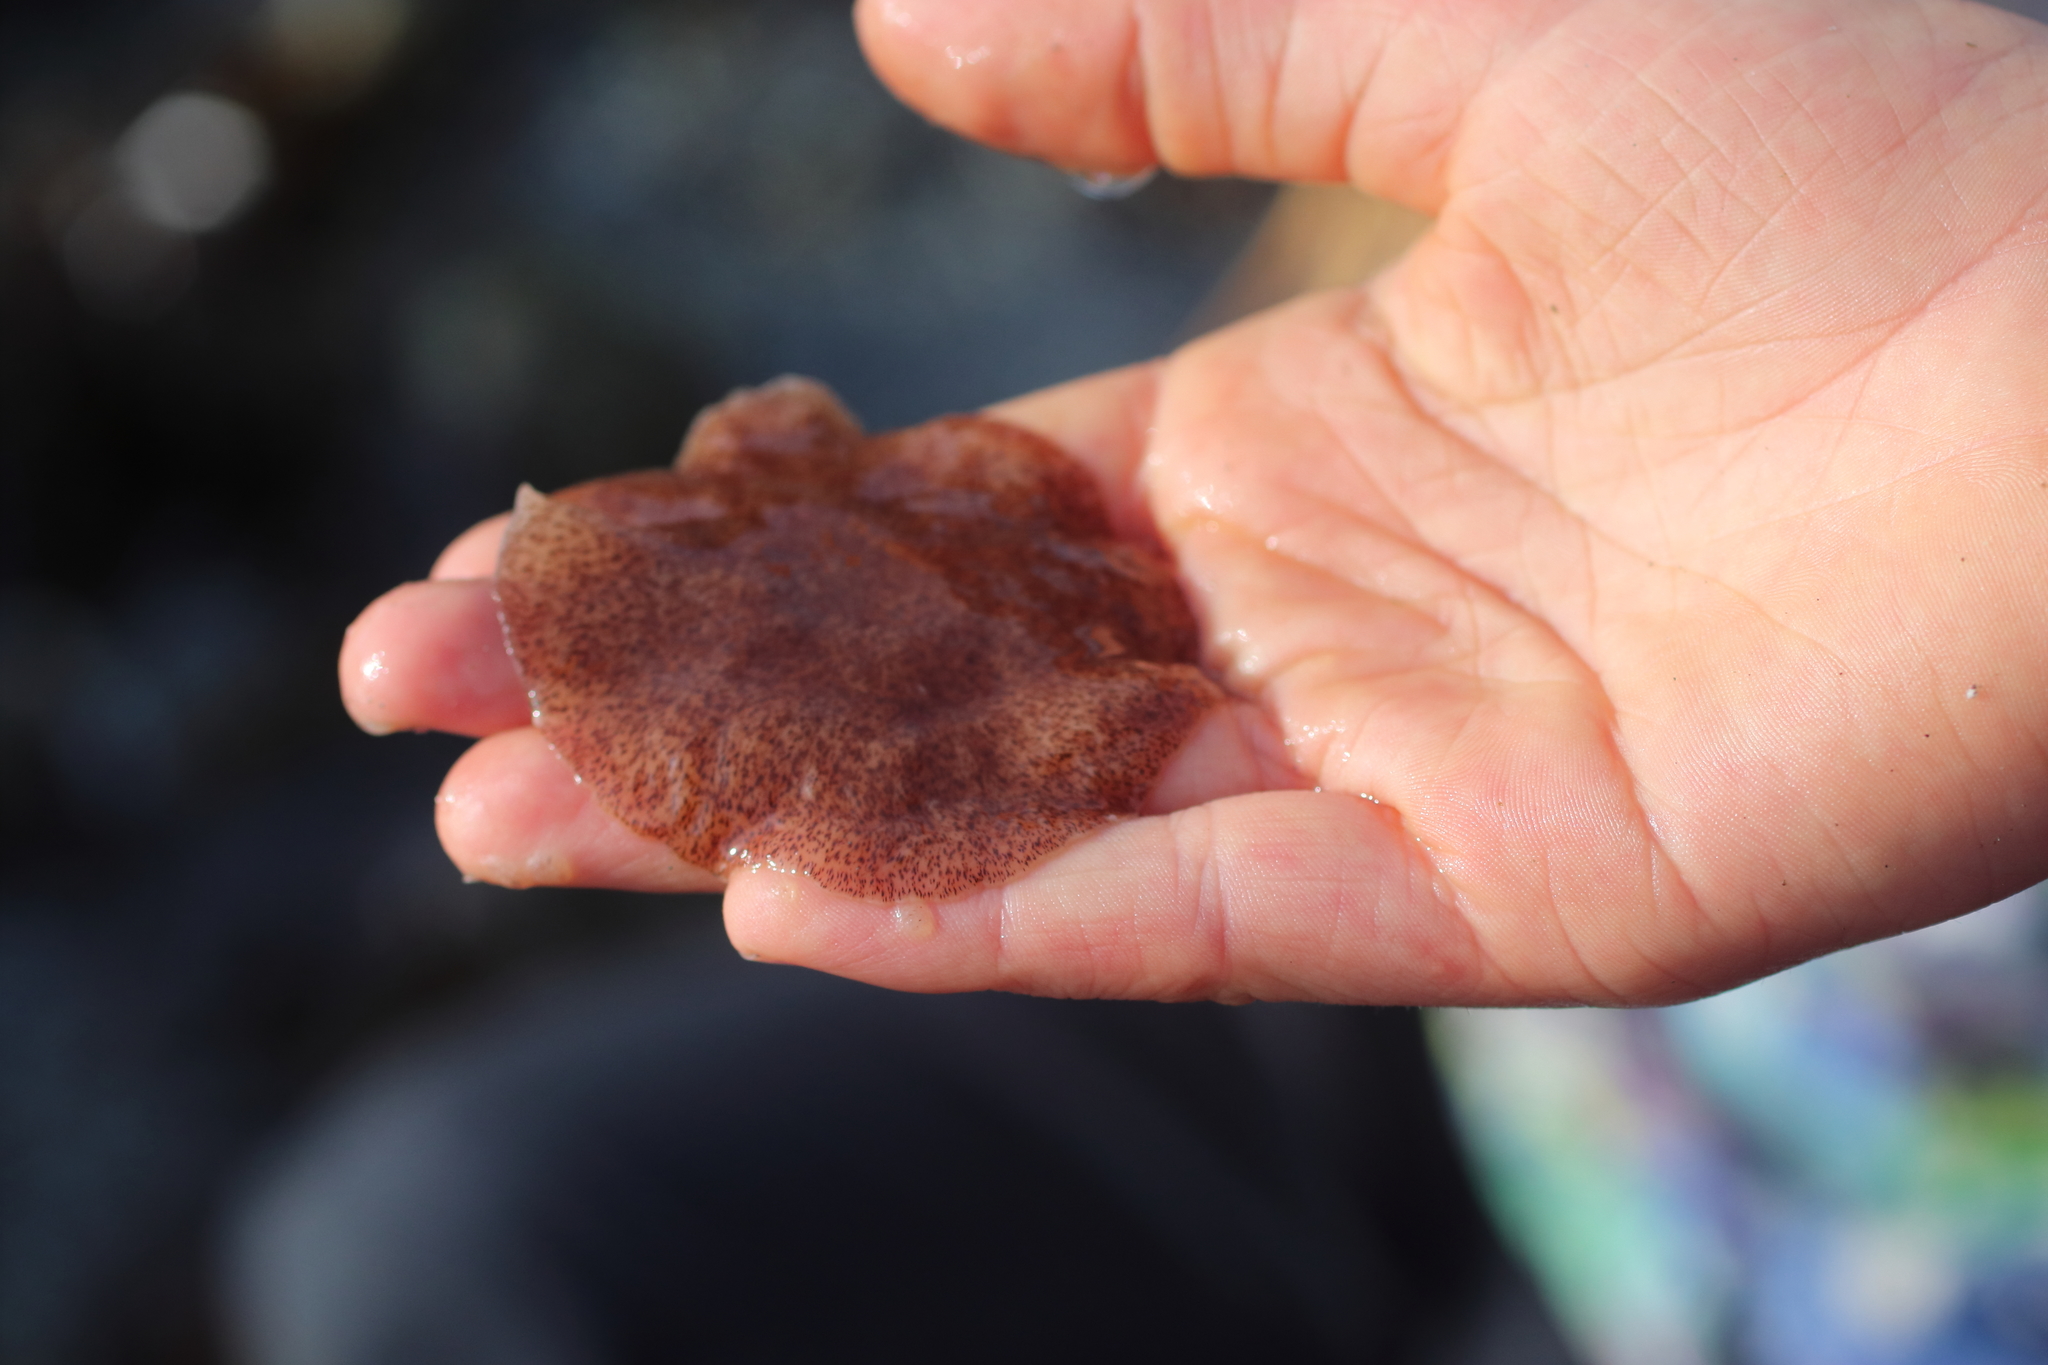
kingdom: Animalia
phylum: Platyhelminthes
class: Turbellaria
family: Callioplanidae
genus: Kaburakia
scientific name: Kaburakia excelsa
